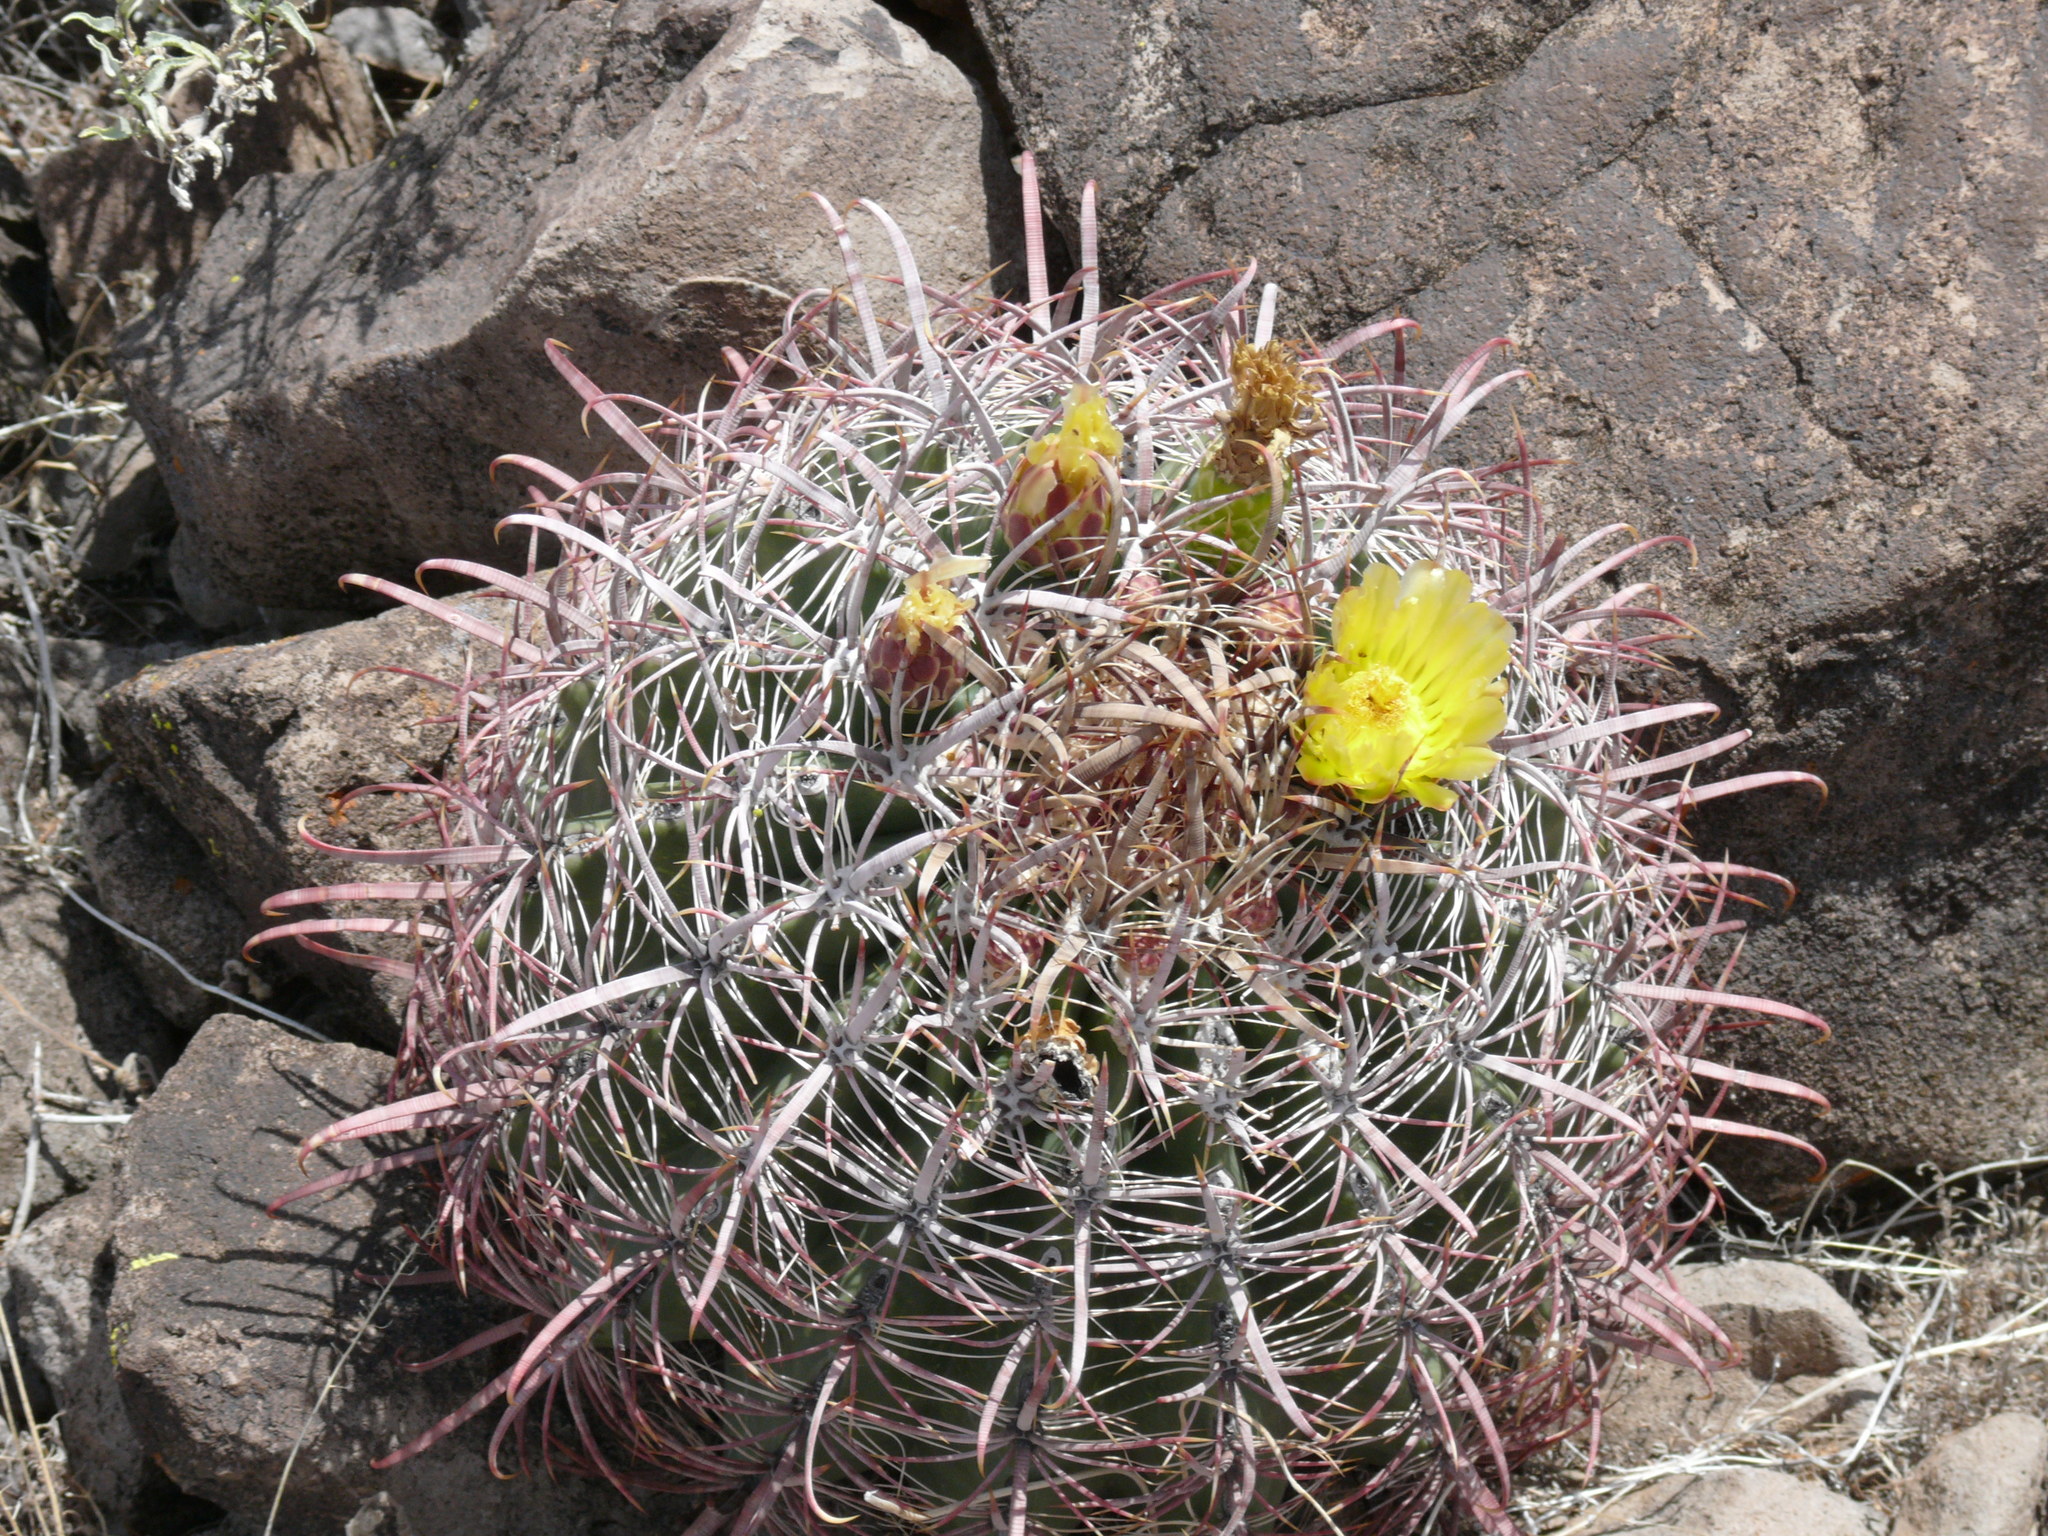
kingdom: Plantae
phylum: Tracheophyta
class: Magnoliopsida
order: Caryophyllales
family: Cactaceae
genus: Ferocactus
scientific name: Ferocactus cylindraceus
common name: California barrel cactus
